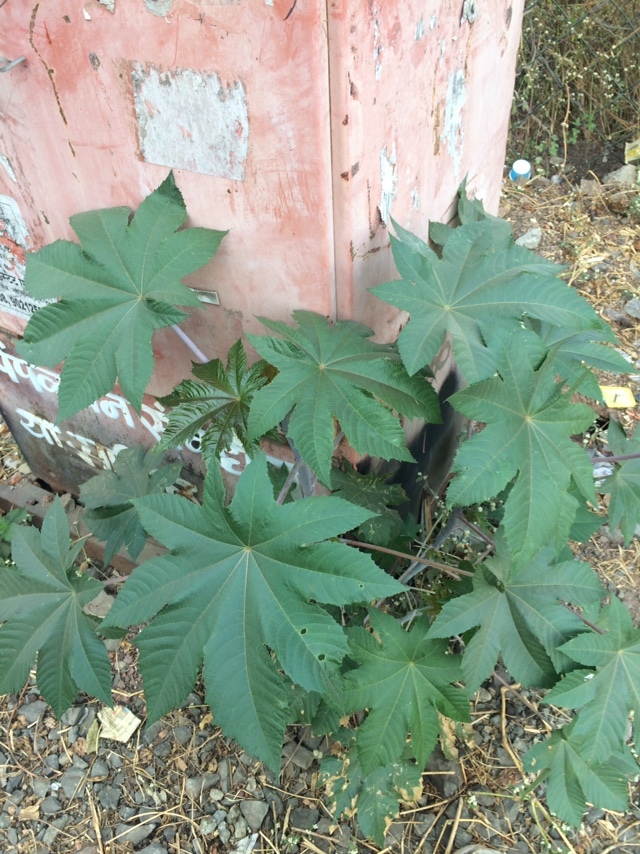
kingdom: Plantae
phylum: Tracheophyta
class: Magnoliopsida
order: Malpighiales
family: Euphorbiaceae
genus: Ricinus
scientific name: Ricinus communis
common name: Castor-oil-plant
